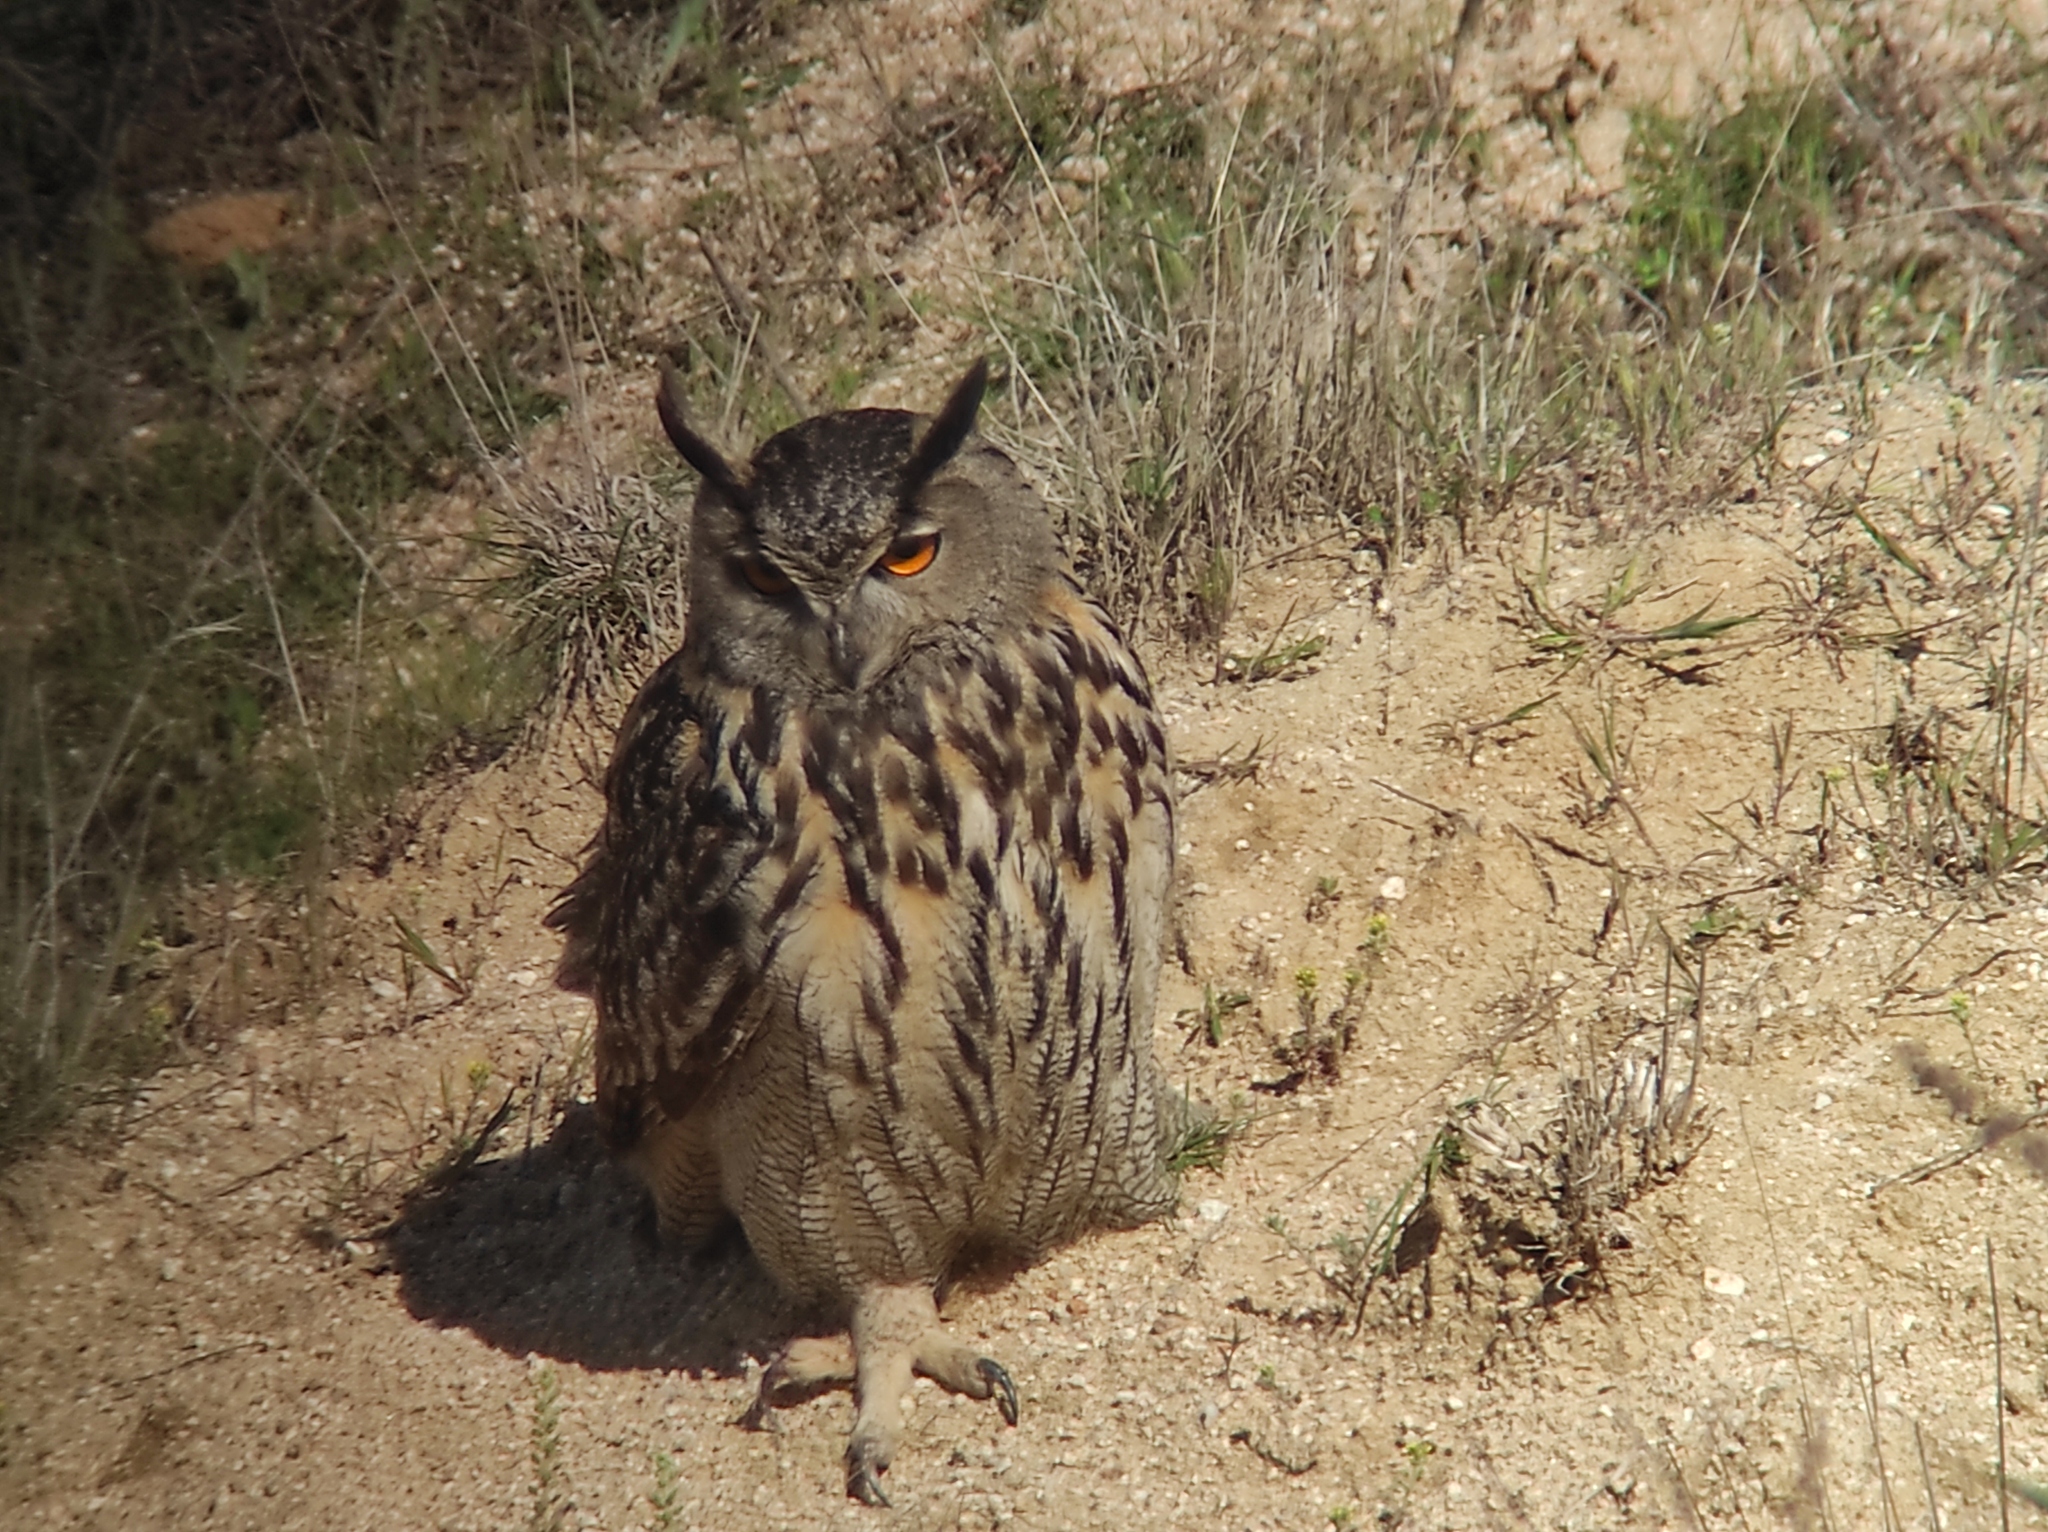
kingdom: Animalia
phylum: Chordata
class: Aves
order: Strigiformes
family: Strigidae
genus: Bubo
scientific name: Bubo bubo
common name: Eurasian eagle-owl
